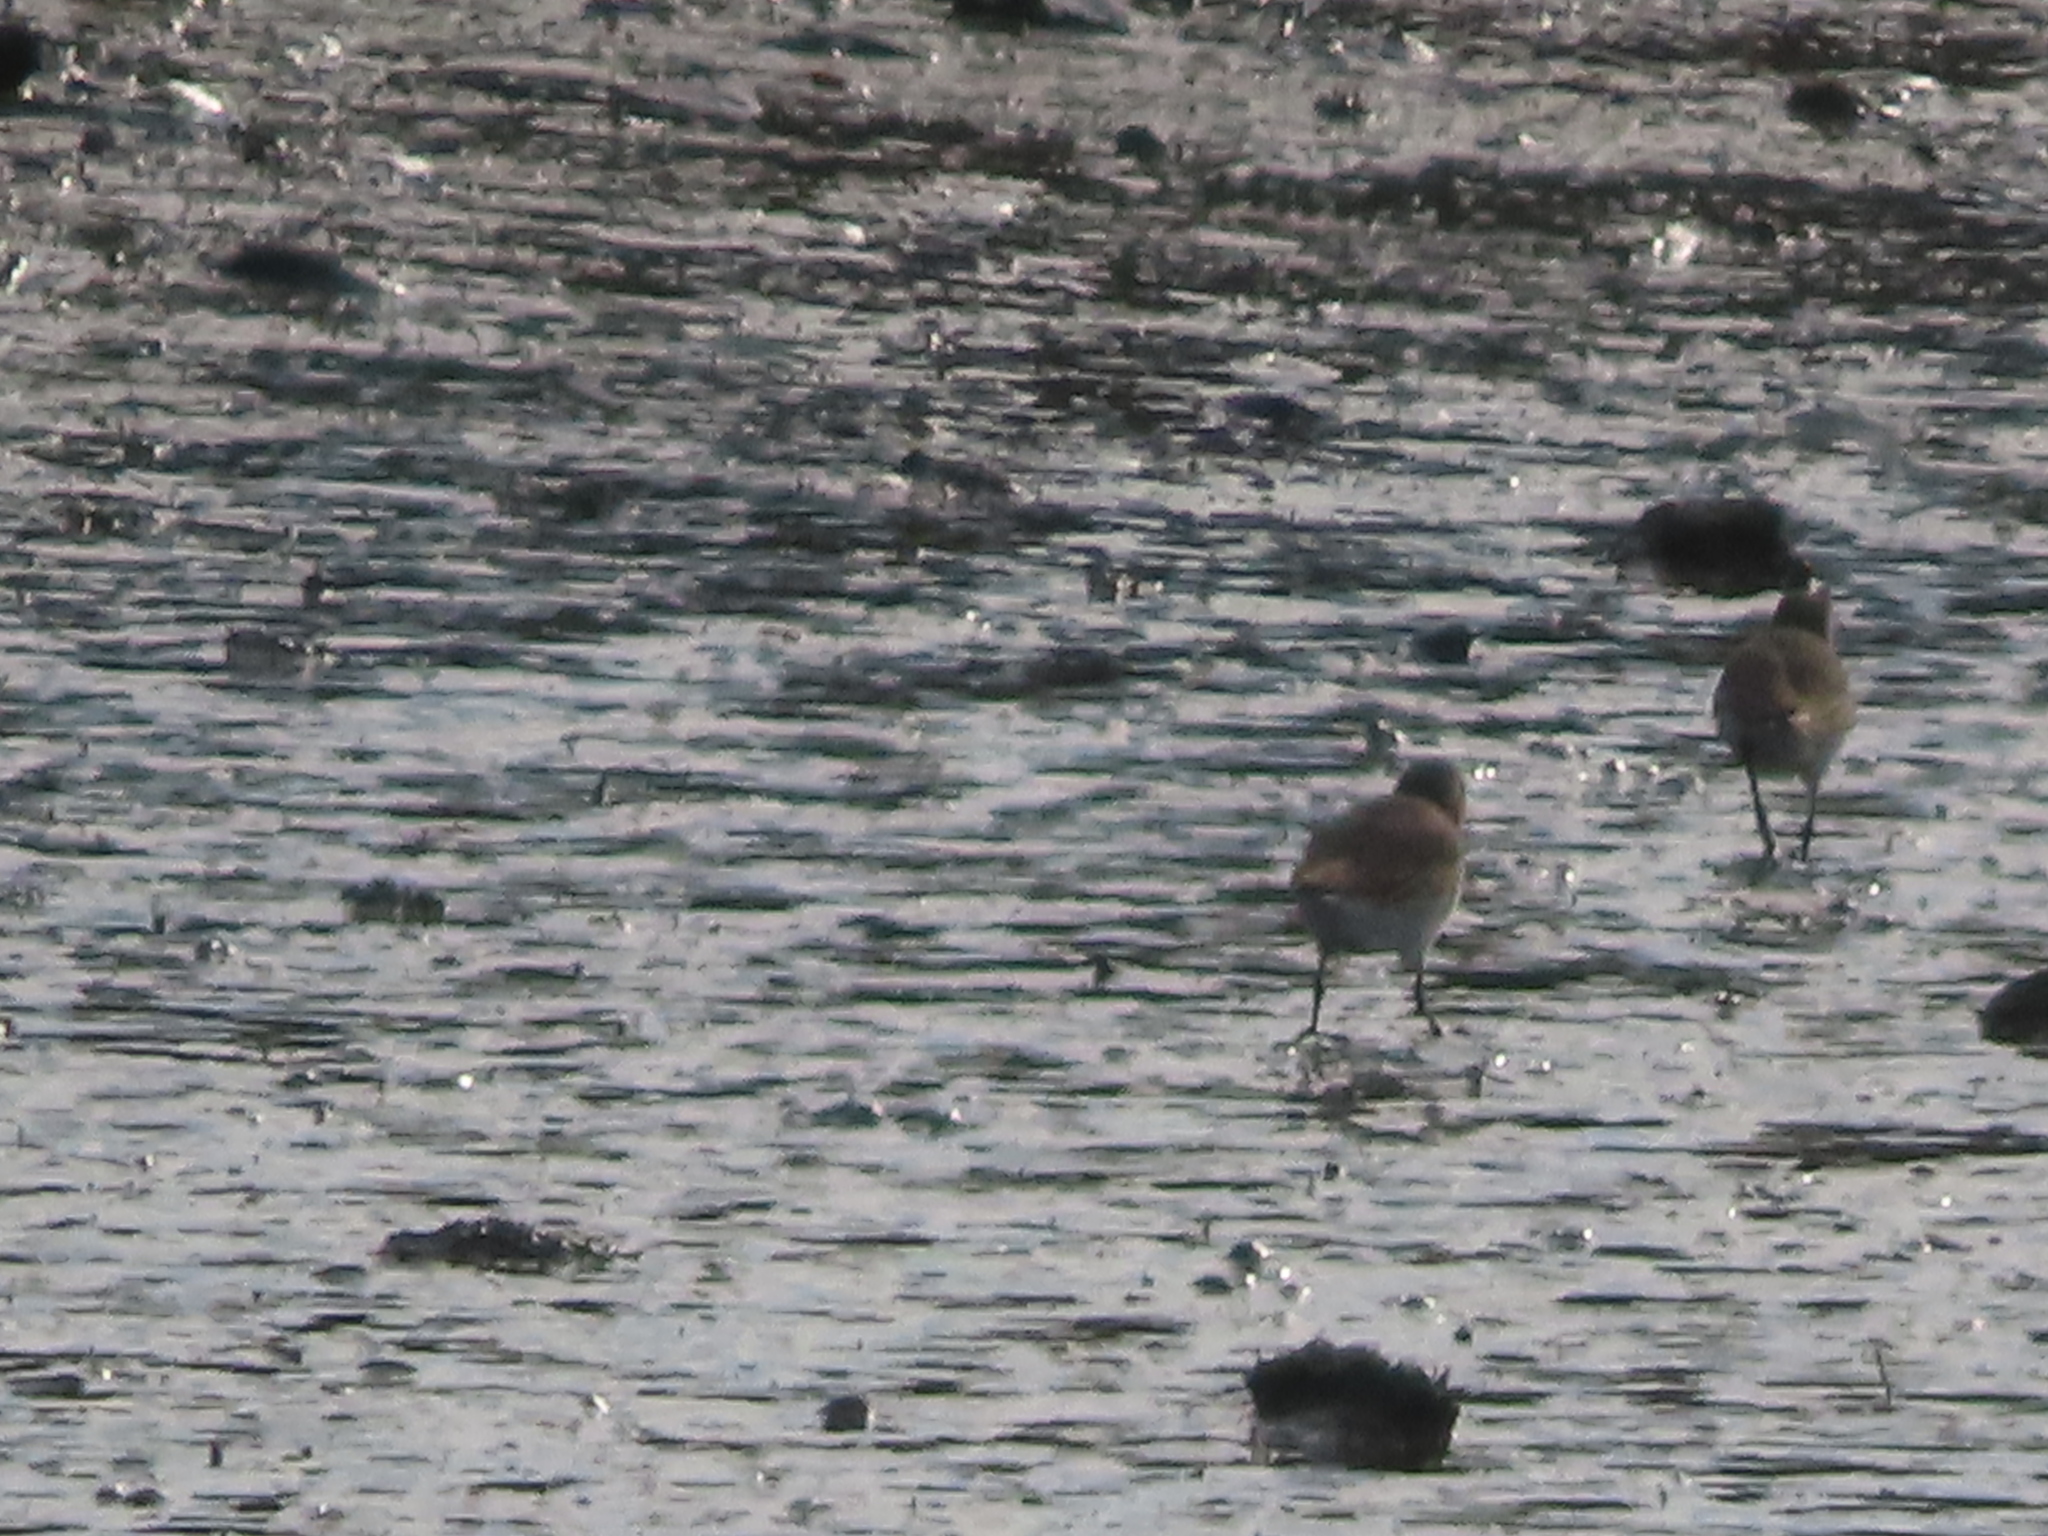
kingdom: Animalia
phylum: Chordata
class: Aves
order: Charadriiformes
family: Scolopacidae
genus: Calidris
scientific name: Calidris alpina
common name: Dunlin
